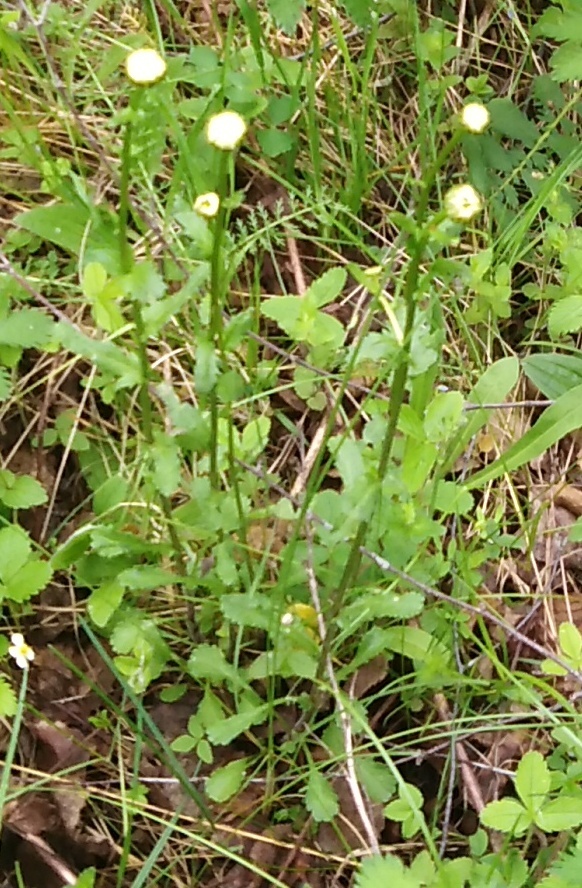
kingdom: Plantae
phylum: Tracheophyta
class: Magnoliopsida
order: Asterales
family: Asteraceae
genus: Leucanthemum
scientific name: Leucanthemum vulgare
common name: Oxeye daisy
